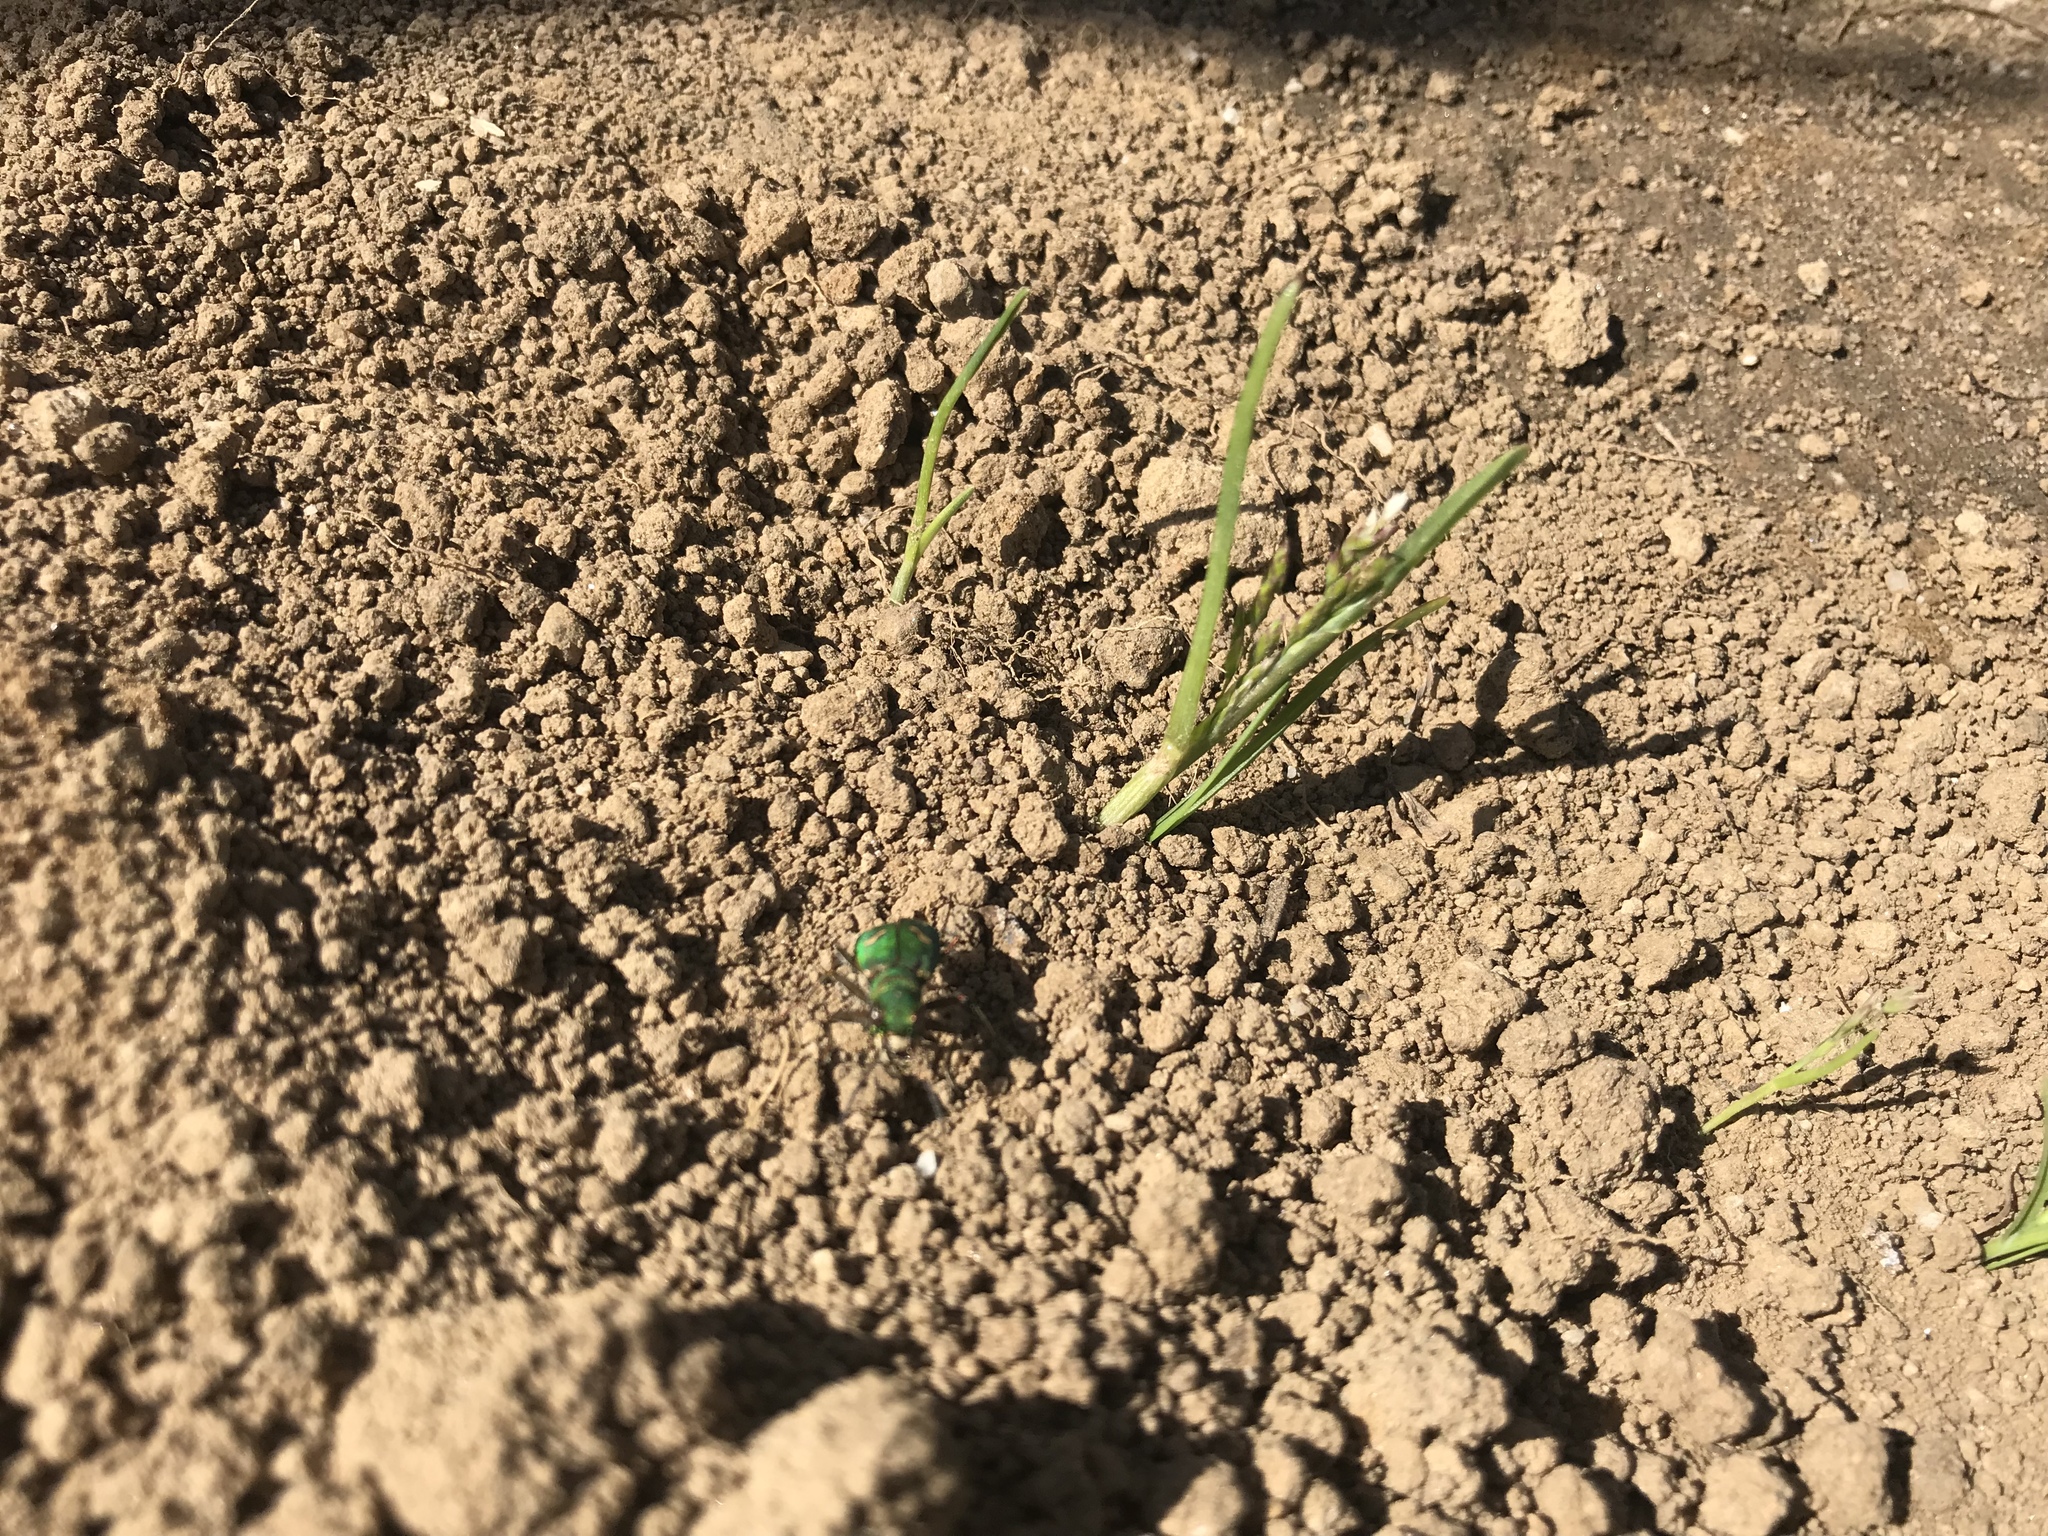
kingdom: Animalia
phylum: Arthropoda
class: Insecta
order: Coleoptera
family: Carabidae
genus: Cicindela
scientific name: Cicindela ohlone
